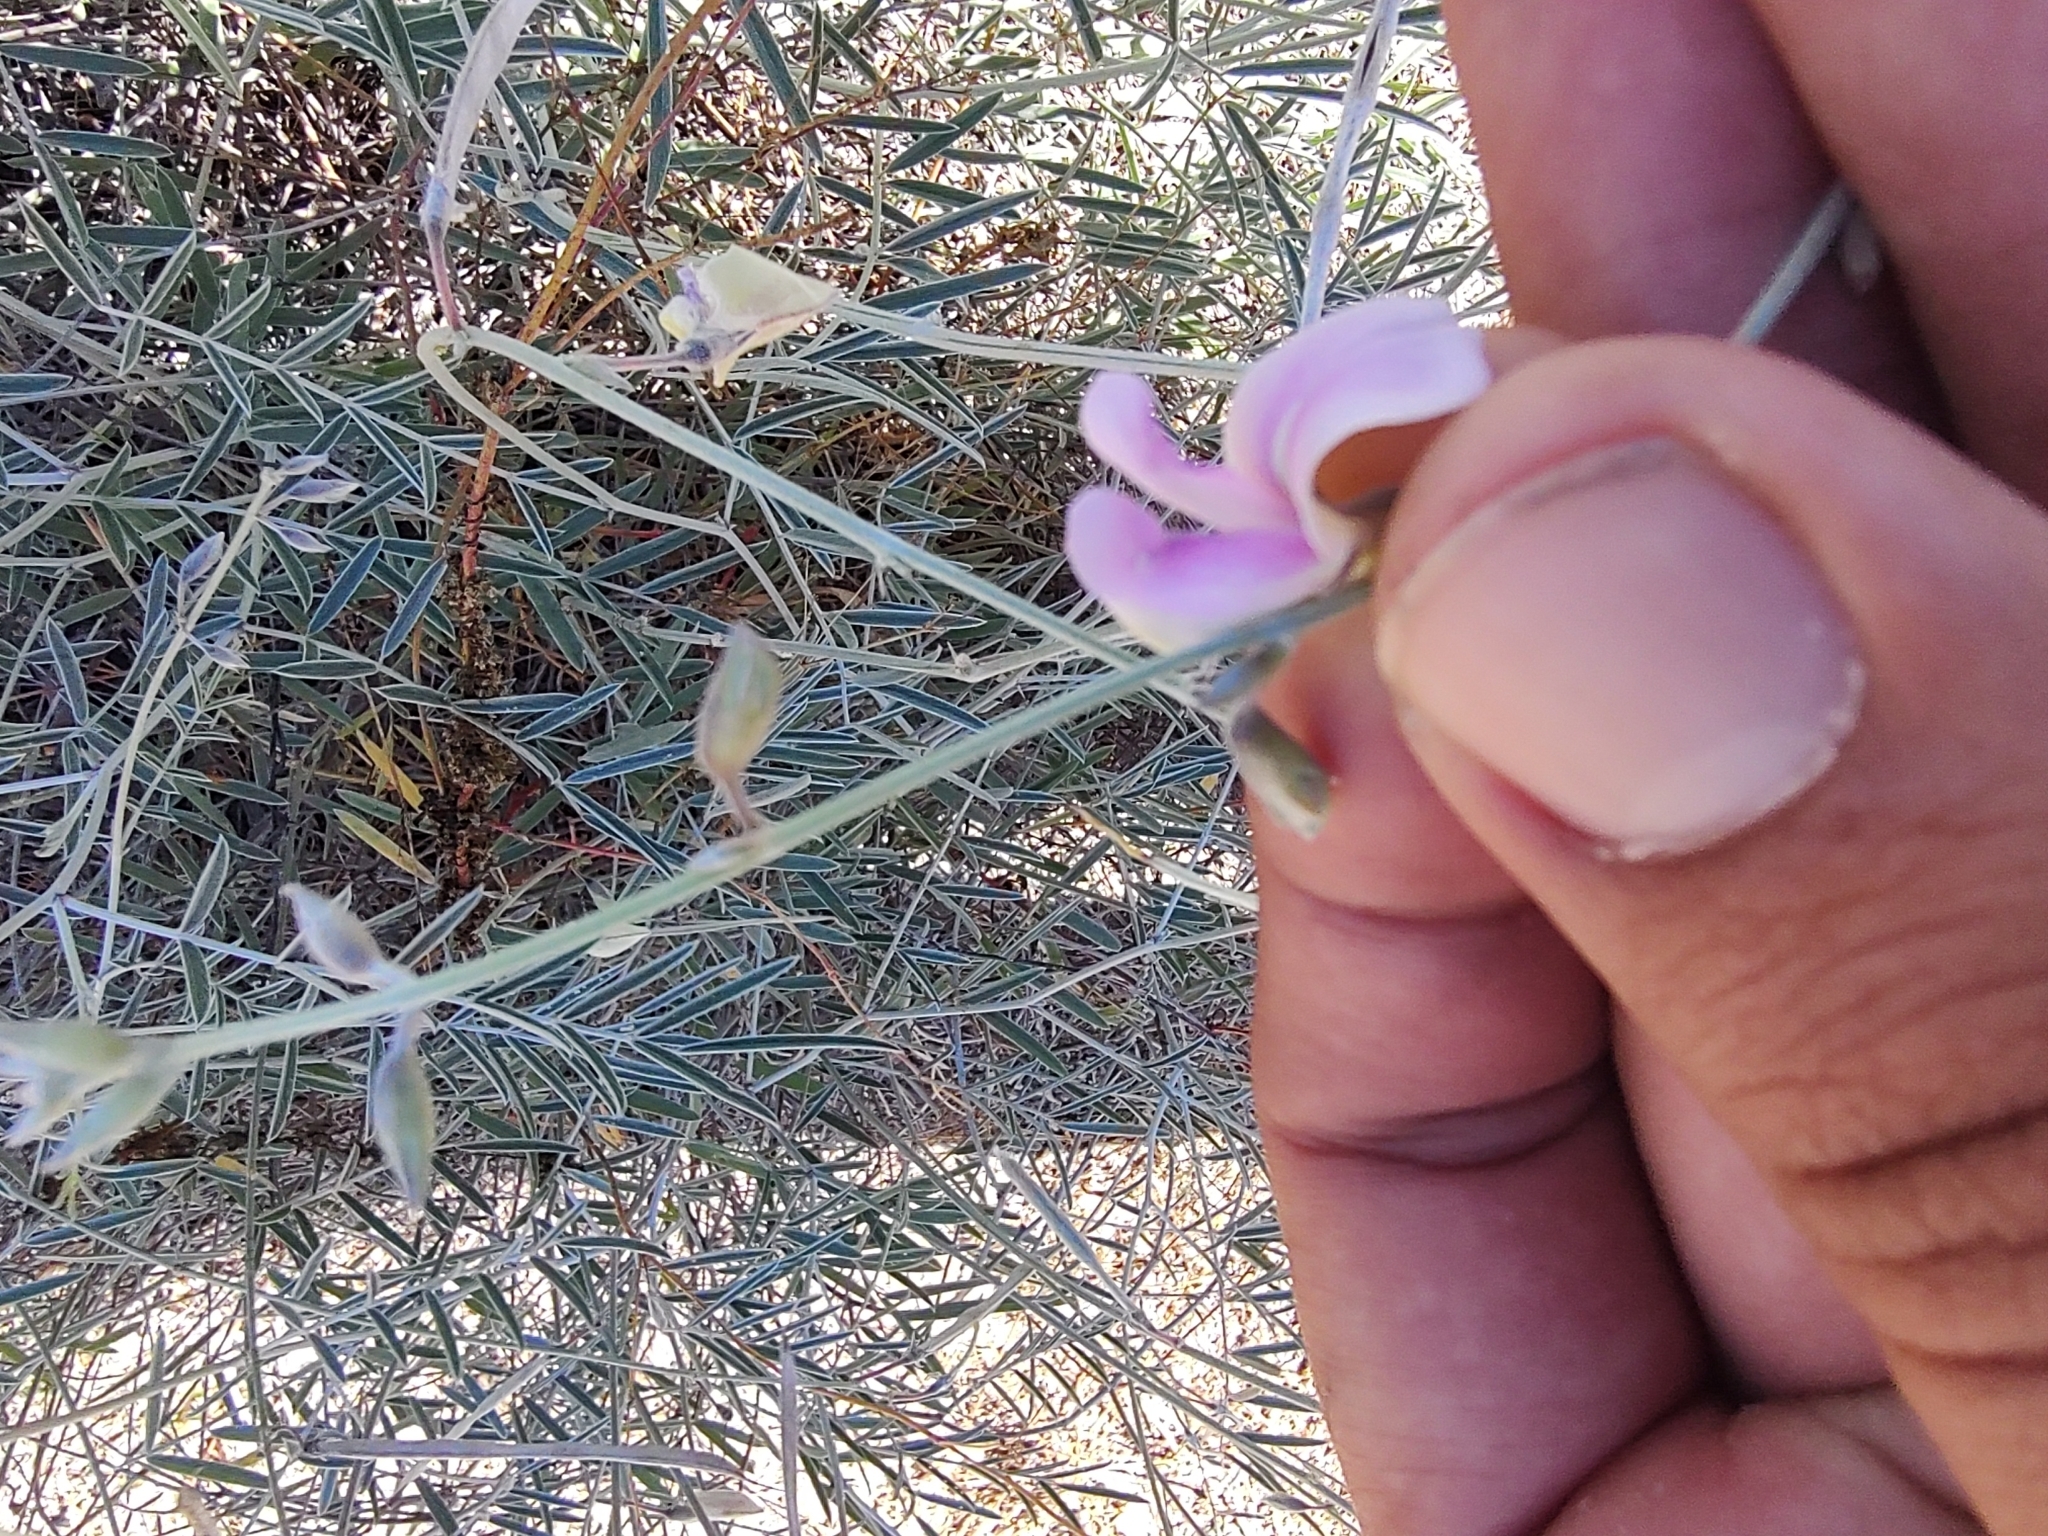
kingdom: Plantae
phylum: Tracheophyta
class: Magnoliopsida
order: Fabales
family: Fabaceae
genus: Tephrosia
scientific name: Tephrosia palmeri
